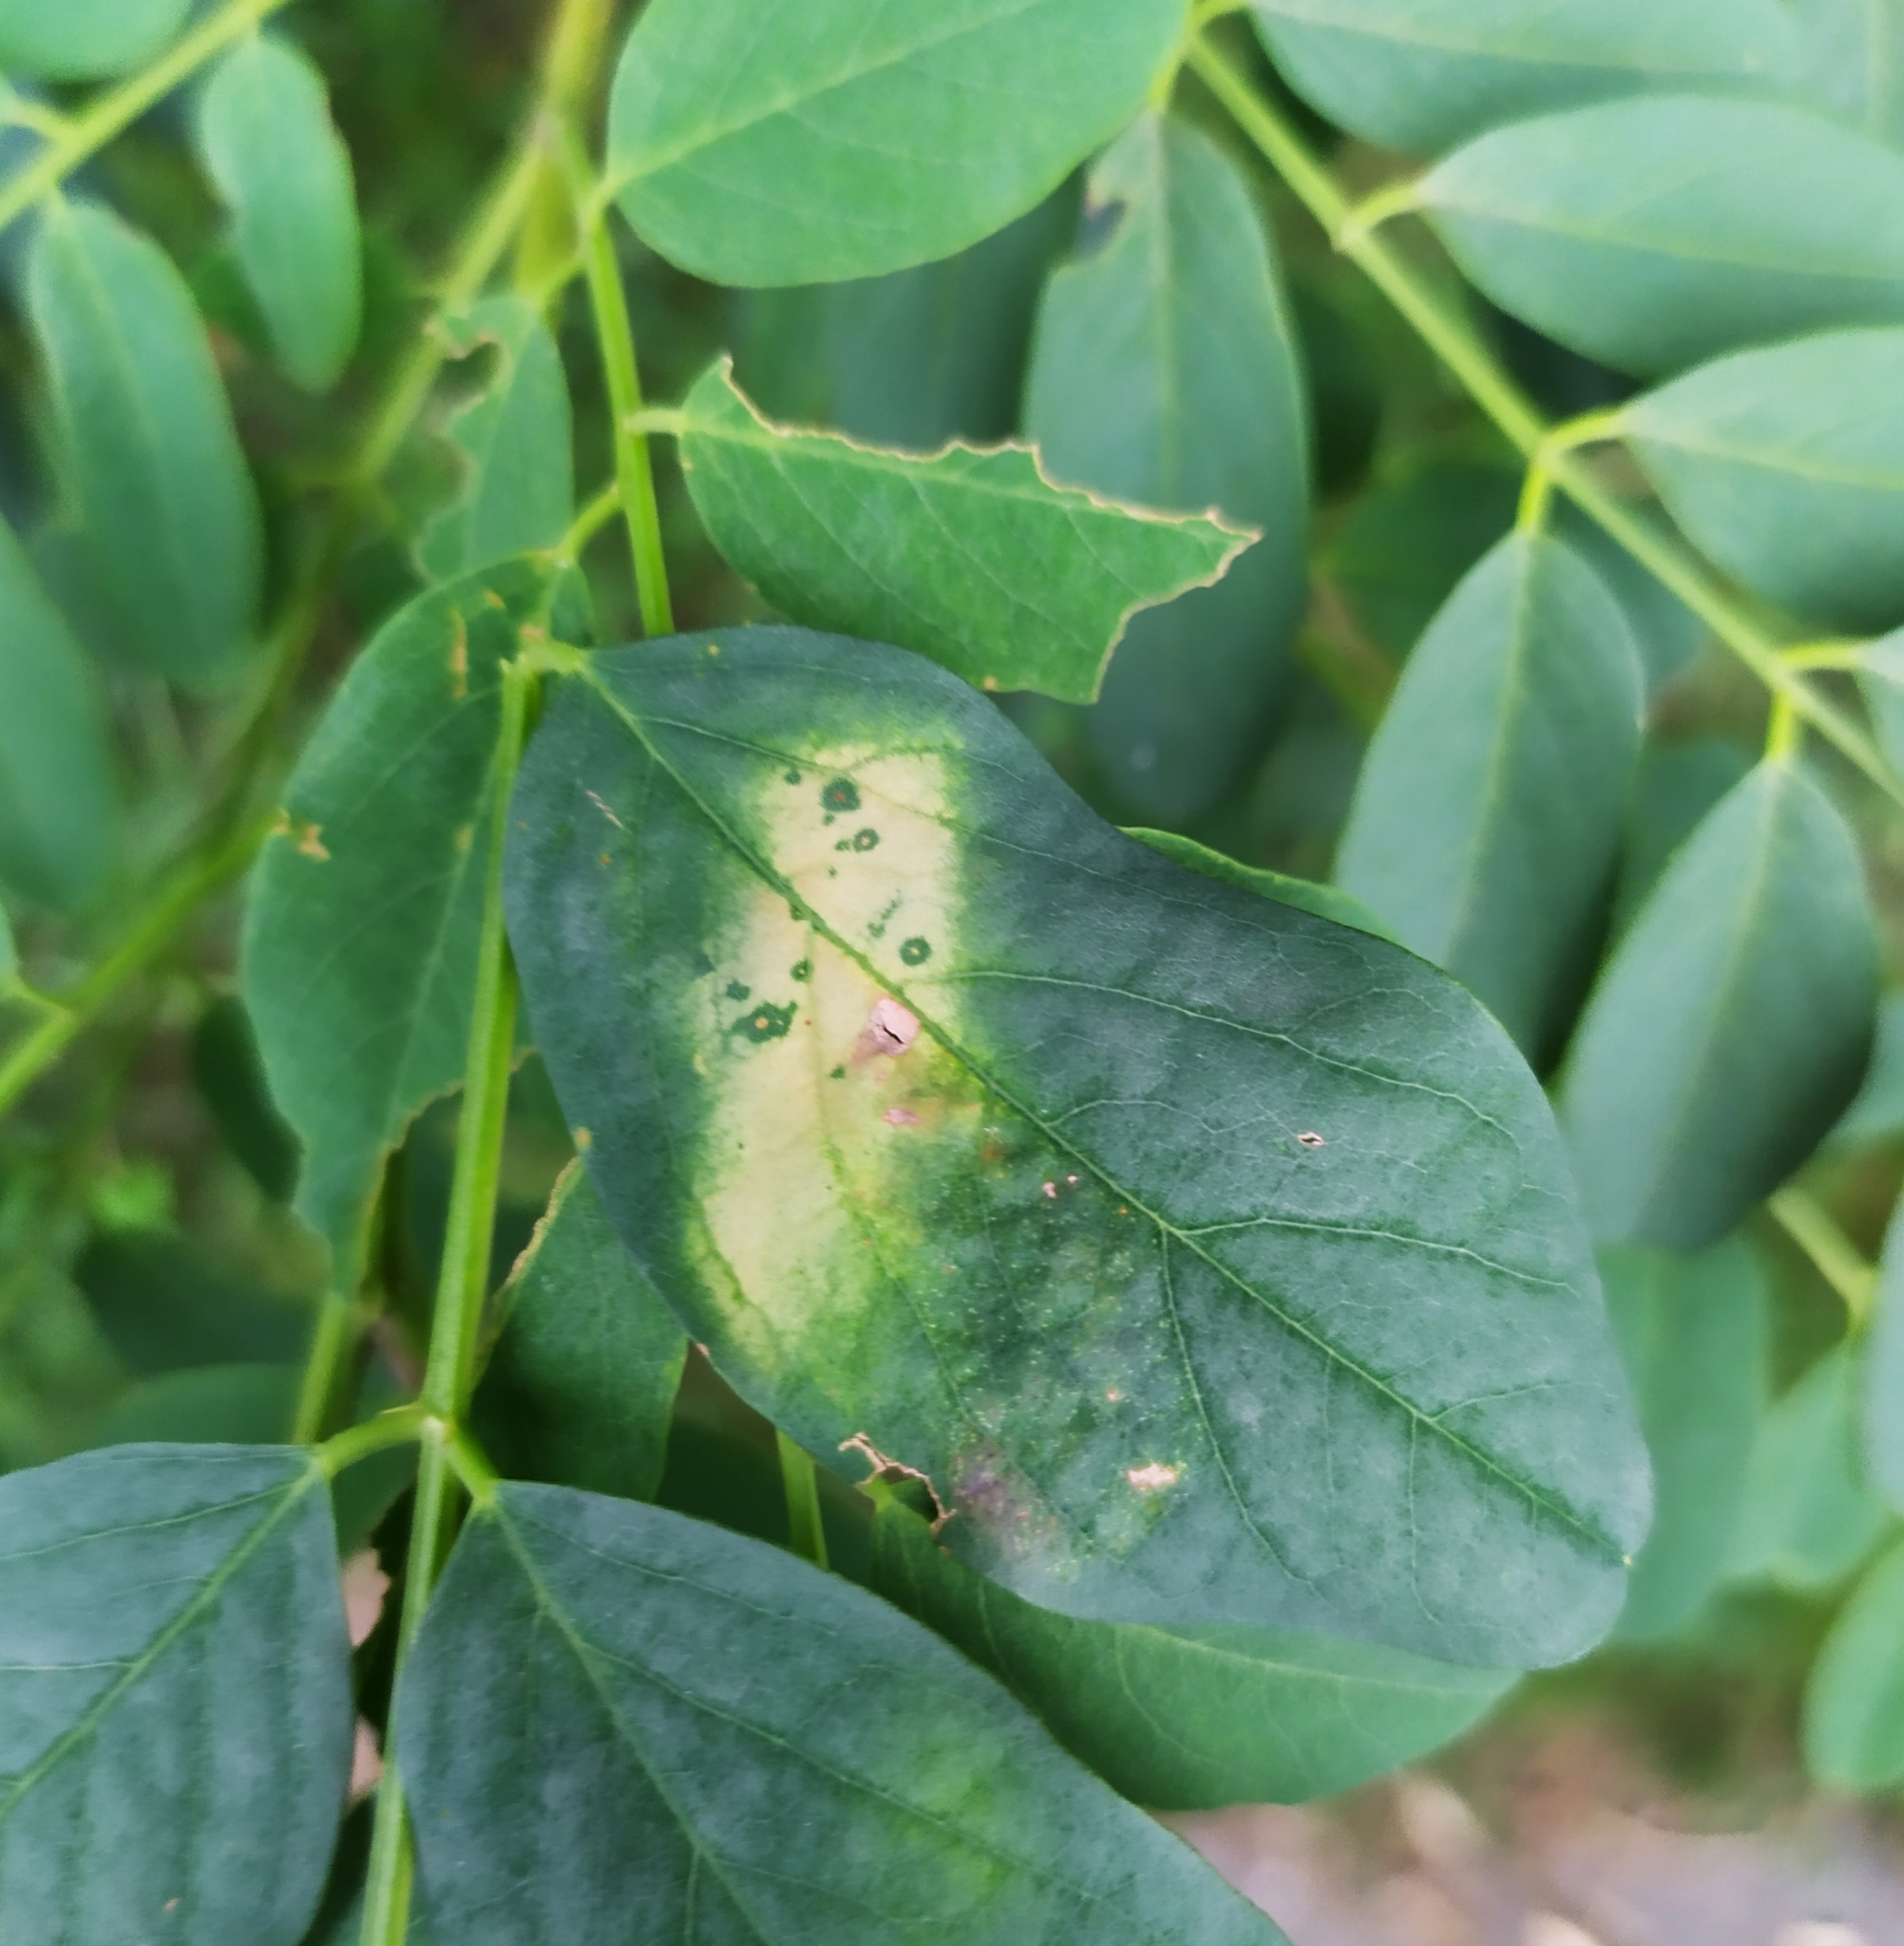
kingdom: Animalia
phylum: Arthropoda
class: Insecta
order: Lepidoptera
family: Gracillariidae
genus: Macrosaccus
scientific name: Macrosaccus robiniella
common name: Leaf blotch miner moth
